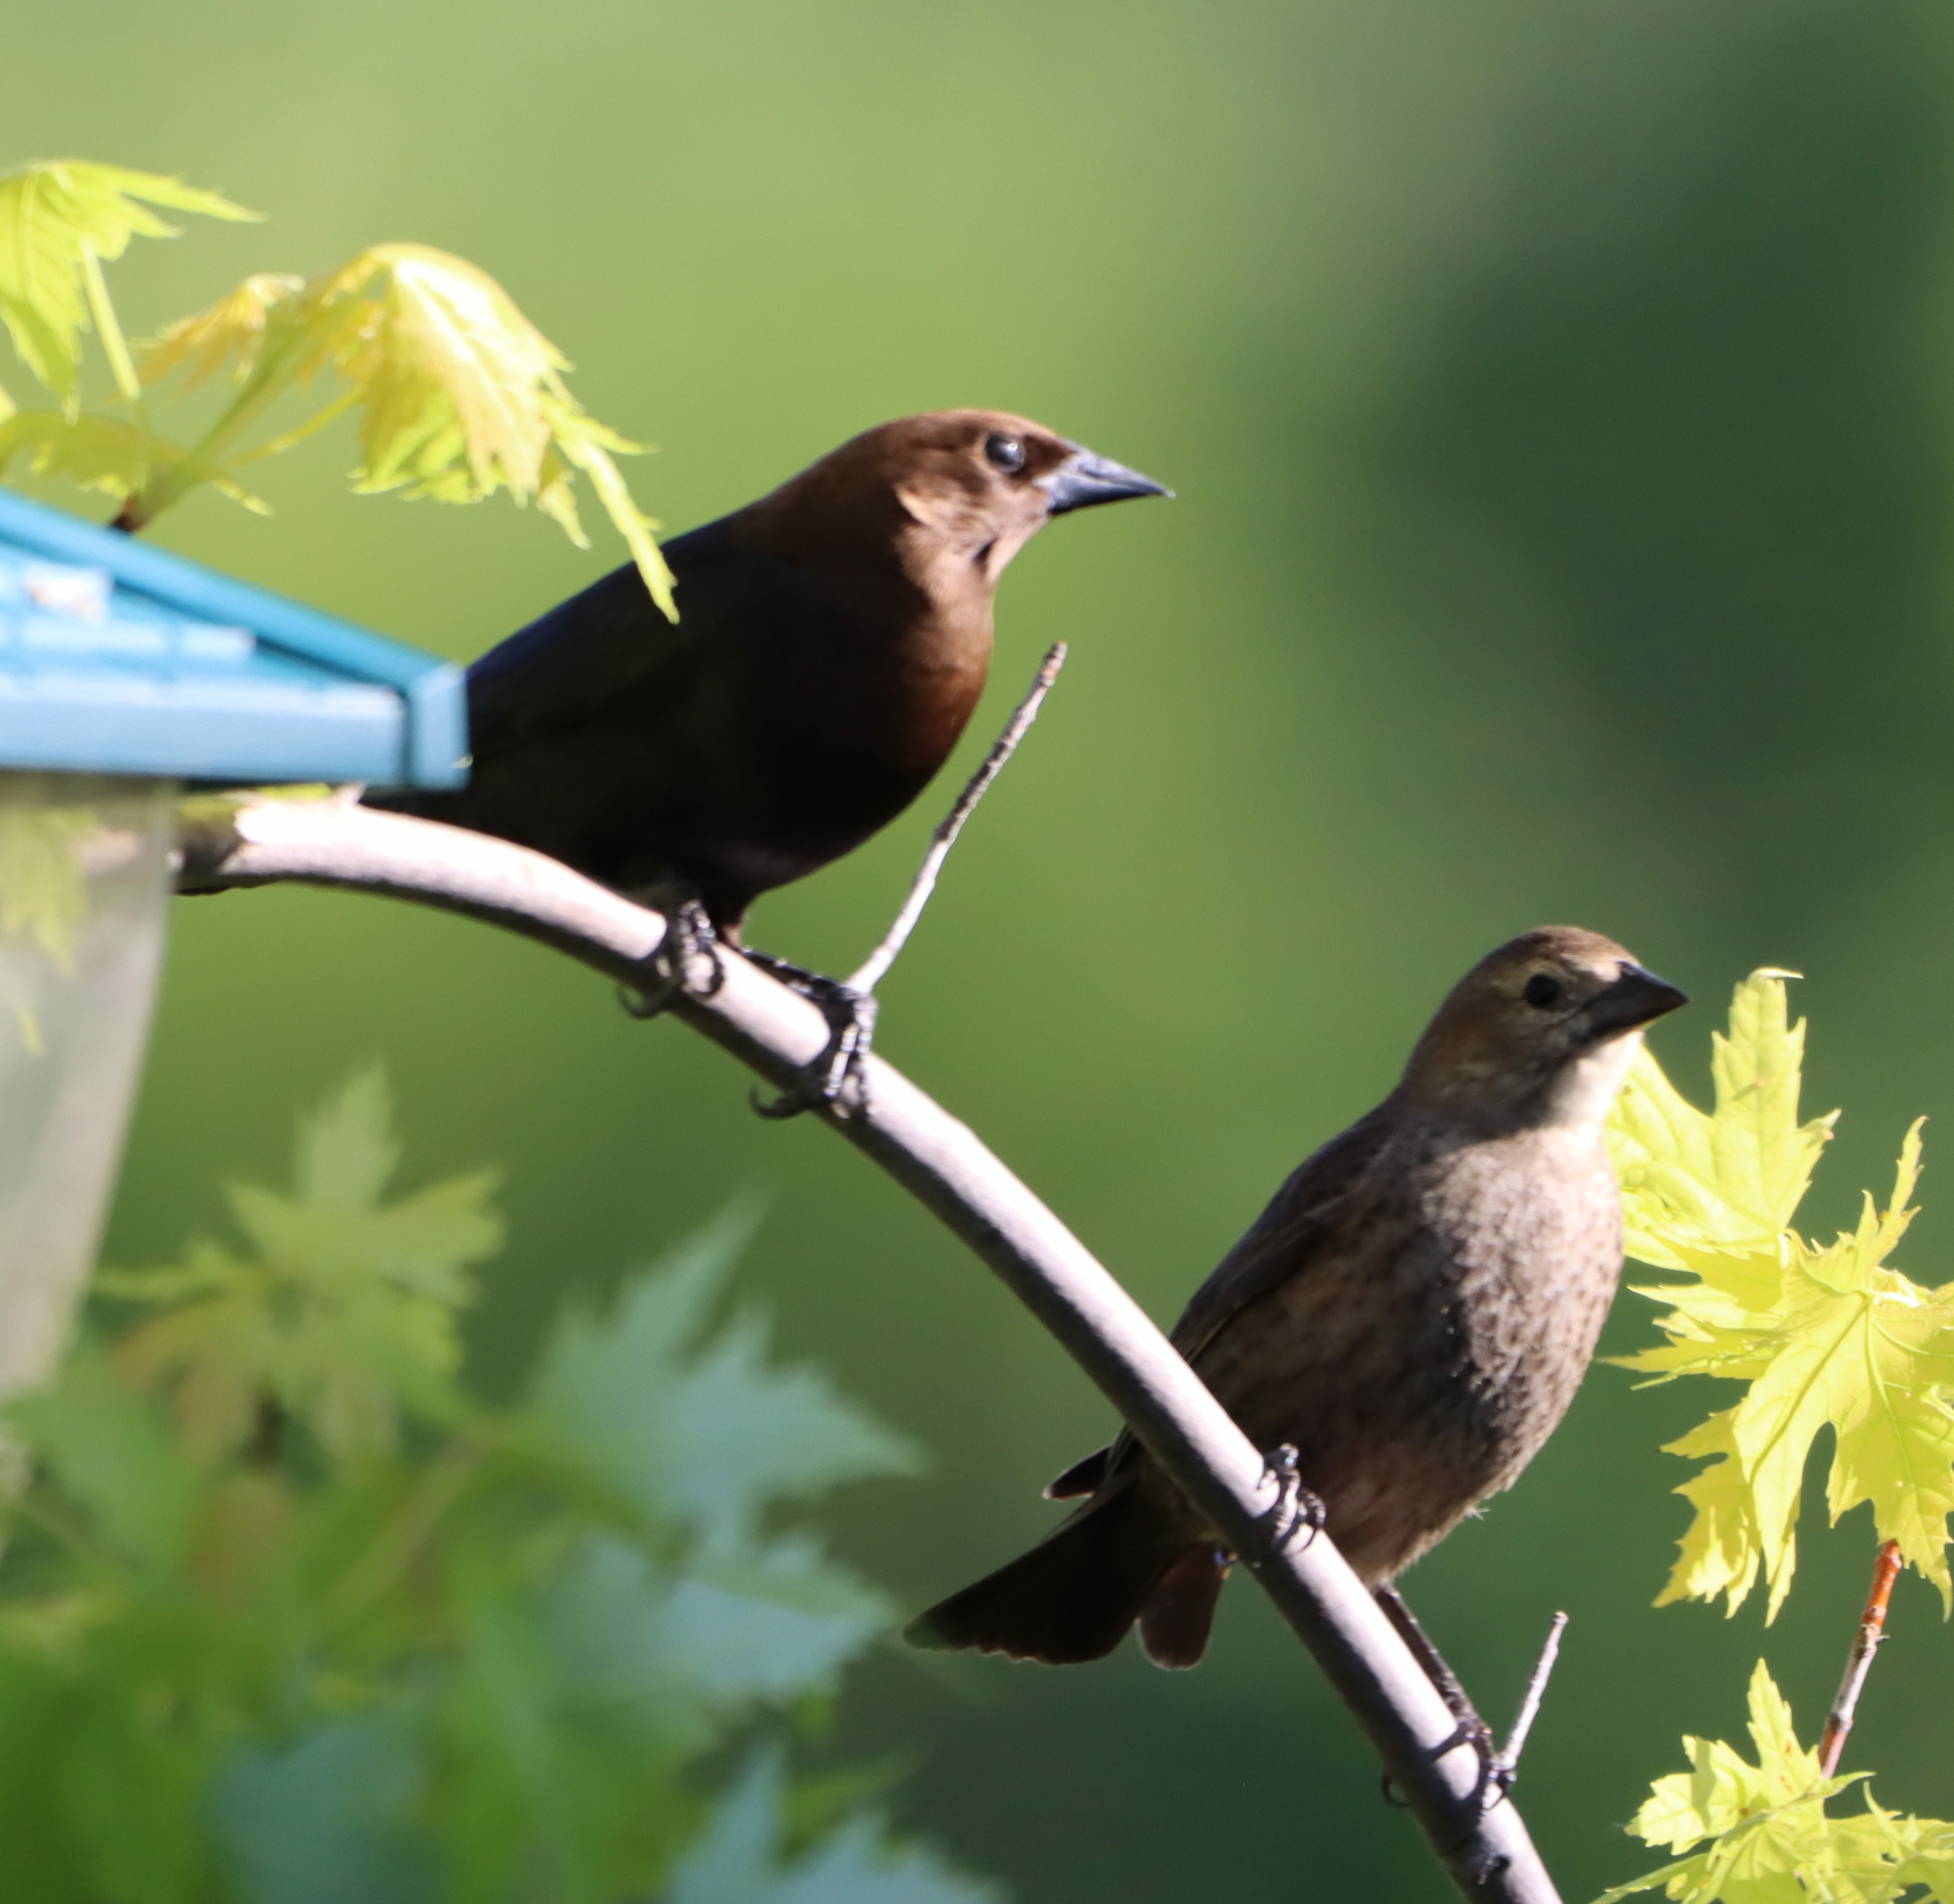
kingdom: Animalia
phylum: Chordata
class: Aves
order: Passeriformes
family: Icteridae
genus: Molothrus
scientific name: Molothrus ater
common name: Brown-headed cowbird
